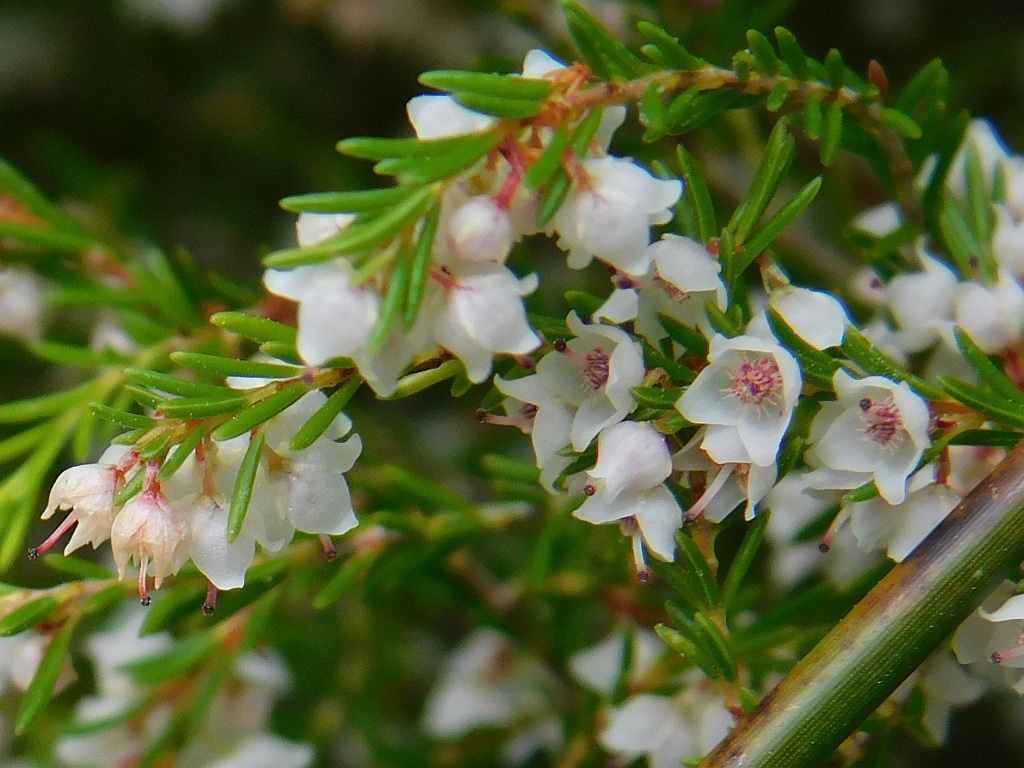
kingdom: Plantae
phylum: Tracheophyta
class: Magnoliopsida
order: Ericales
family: Ericaceae
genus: Erica
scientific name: Erica tenuis
